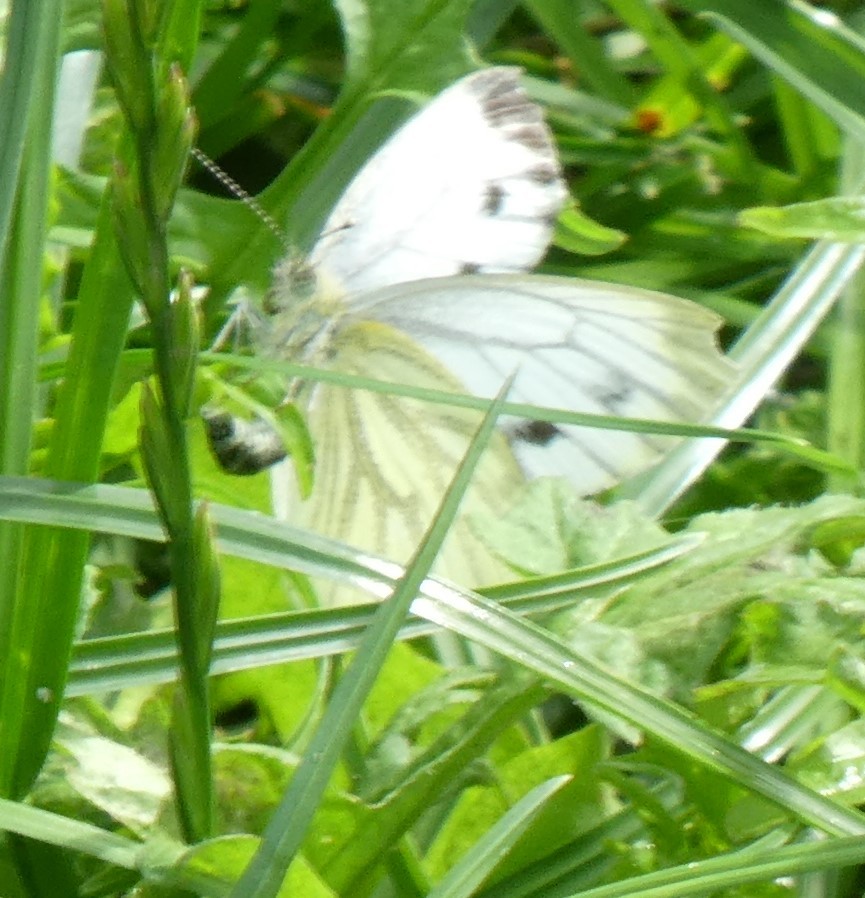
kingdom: Animalia
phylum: Arthropoda
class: Insecta
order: Lepidoptera
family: Pieridae
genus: Pieris
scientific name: Pieris napi
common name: Green-veined white
